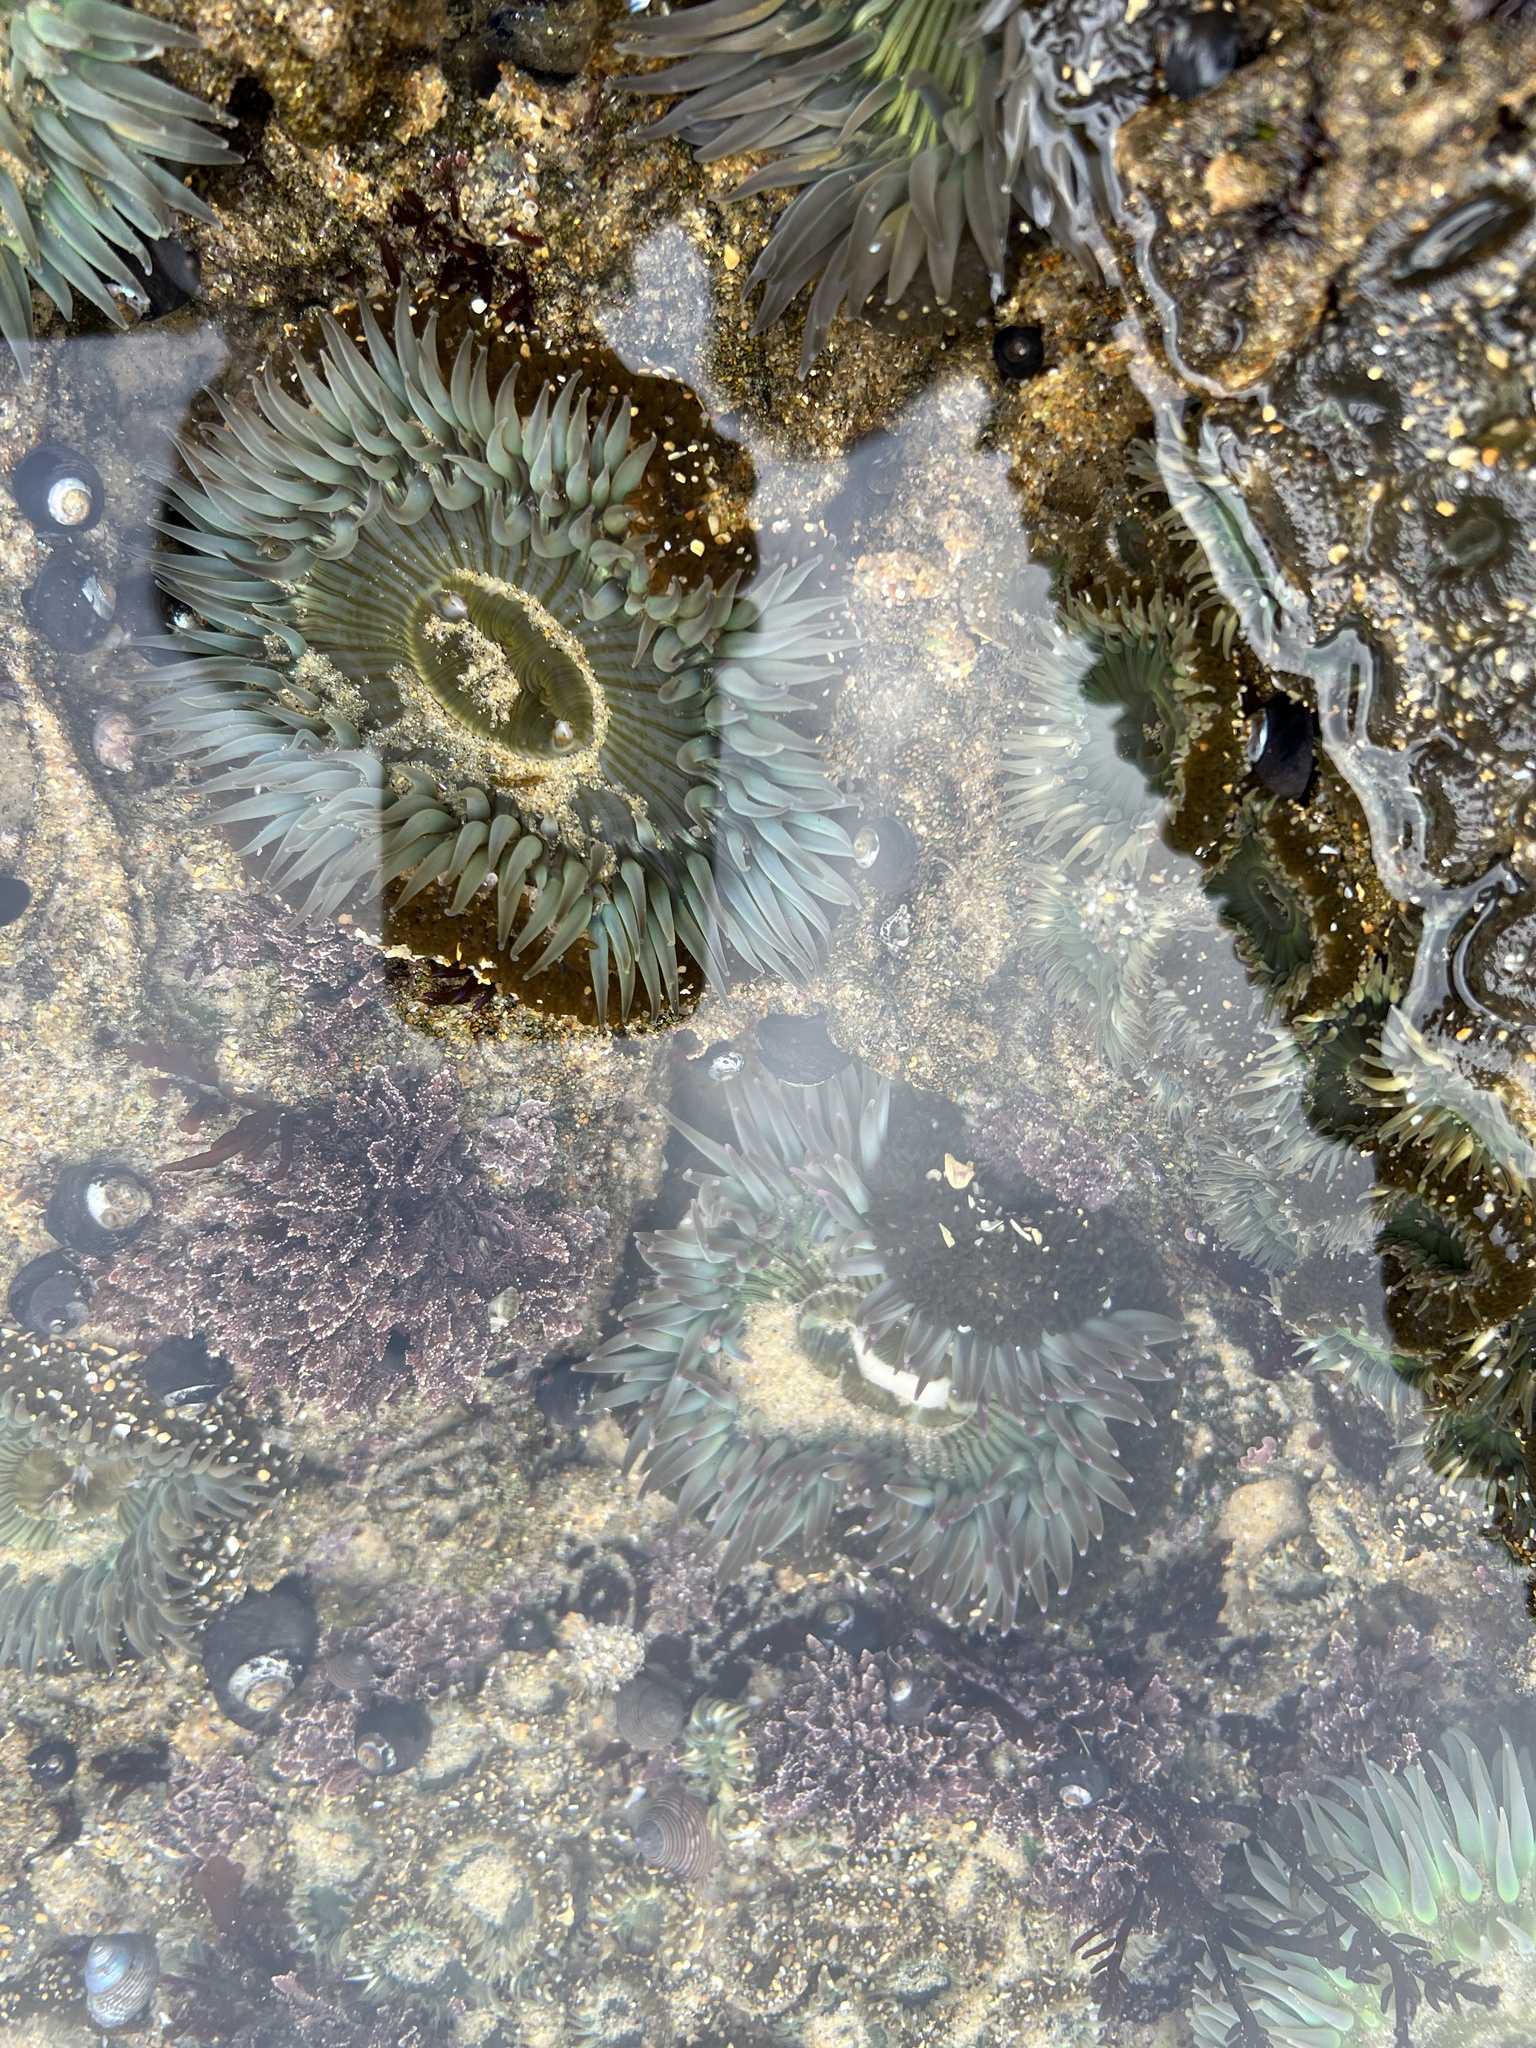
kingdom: Animalia
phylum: Cnidaria
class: Anthozoa
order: Actiniaria
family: Actiniidae
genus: Anthopleura
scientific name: Anthopleura sola
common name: Sun anemone
